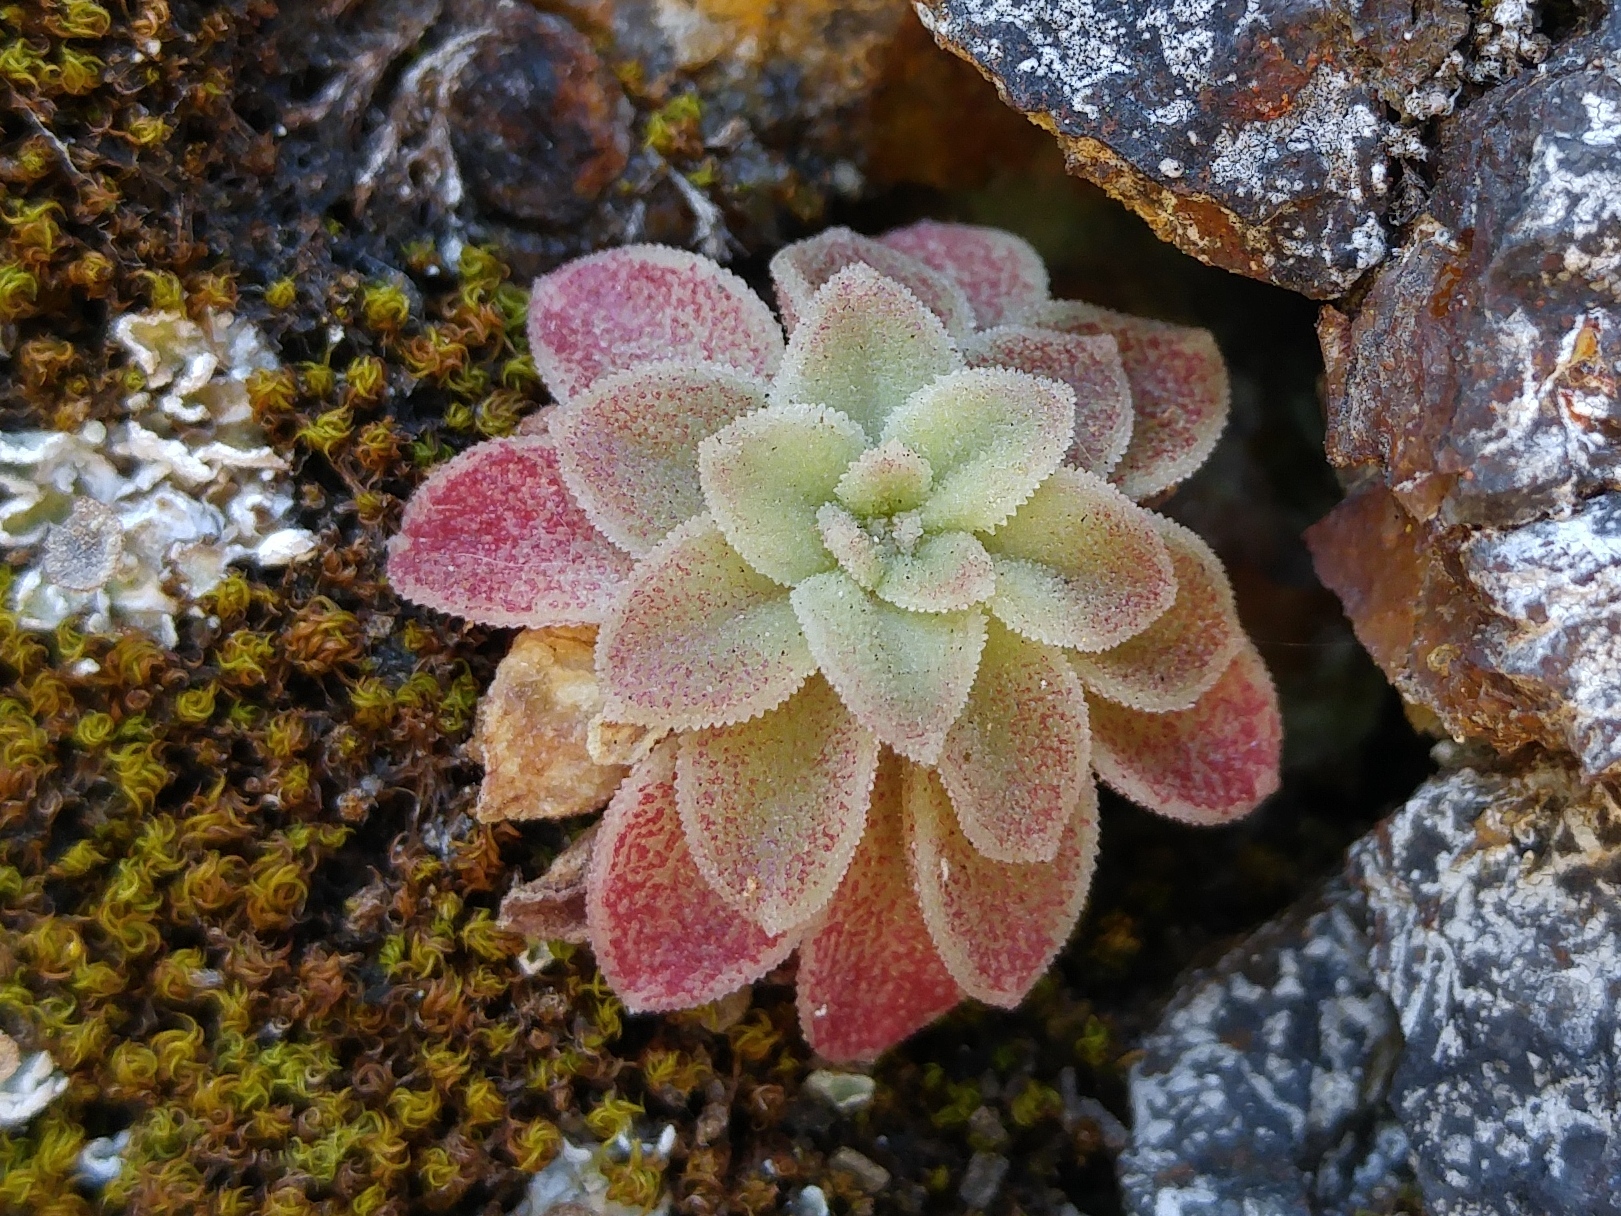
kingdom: Plantae
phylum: Tracheophyta
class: Magnoliopsida
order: Saxifragales
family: Crassulaceae
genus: Sedum
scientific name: Sedum cepaea
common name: Pink stonecrop
